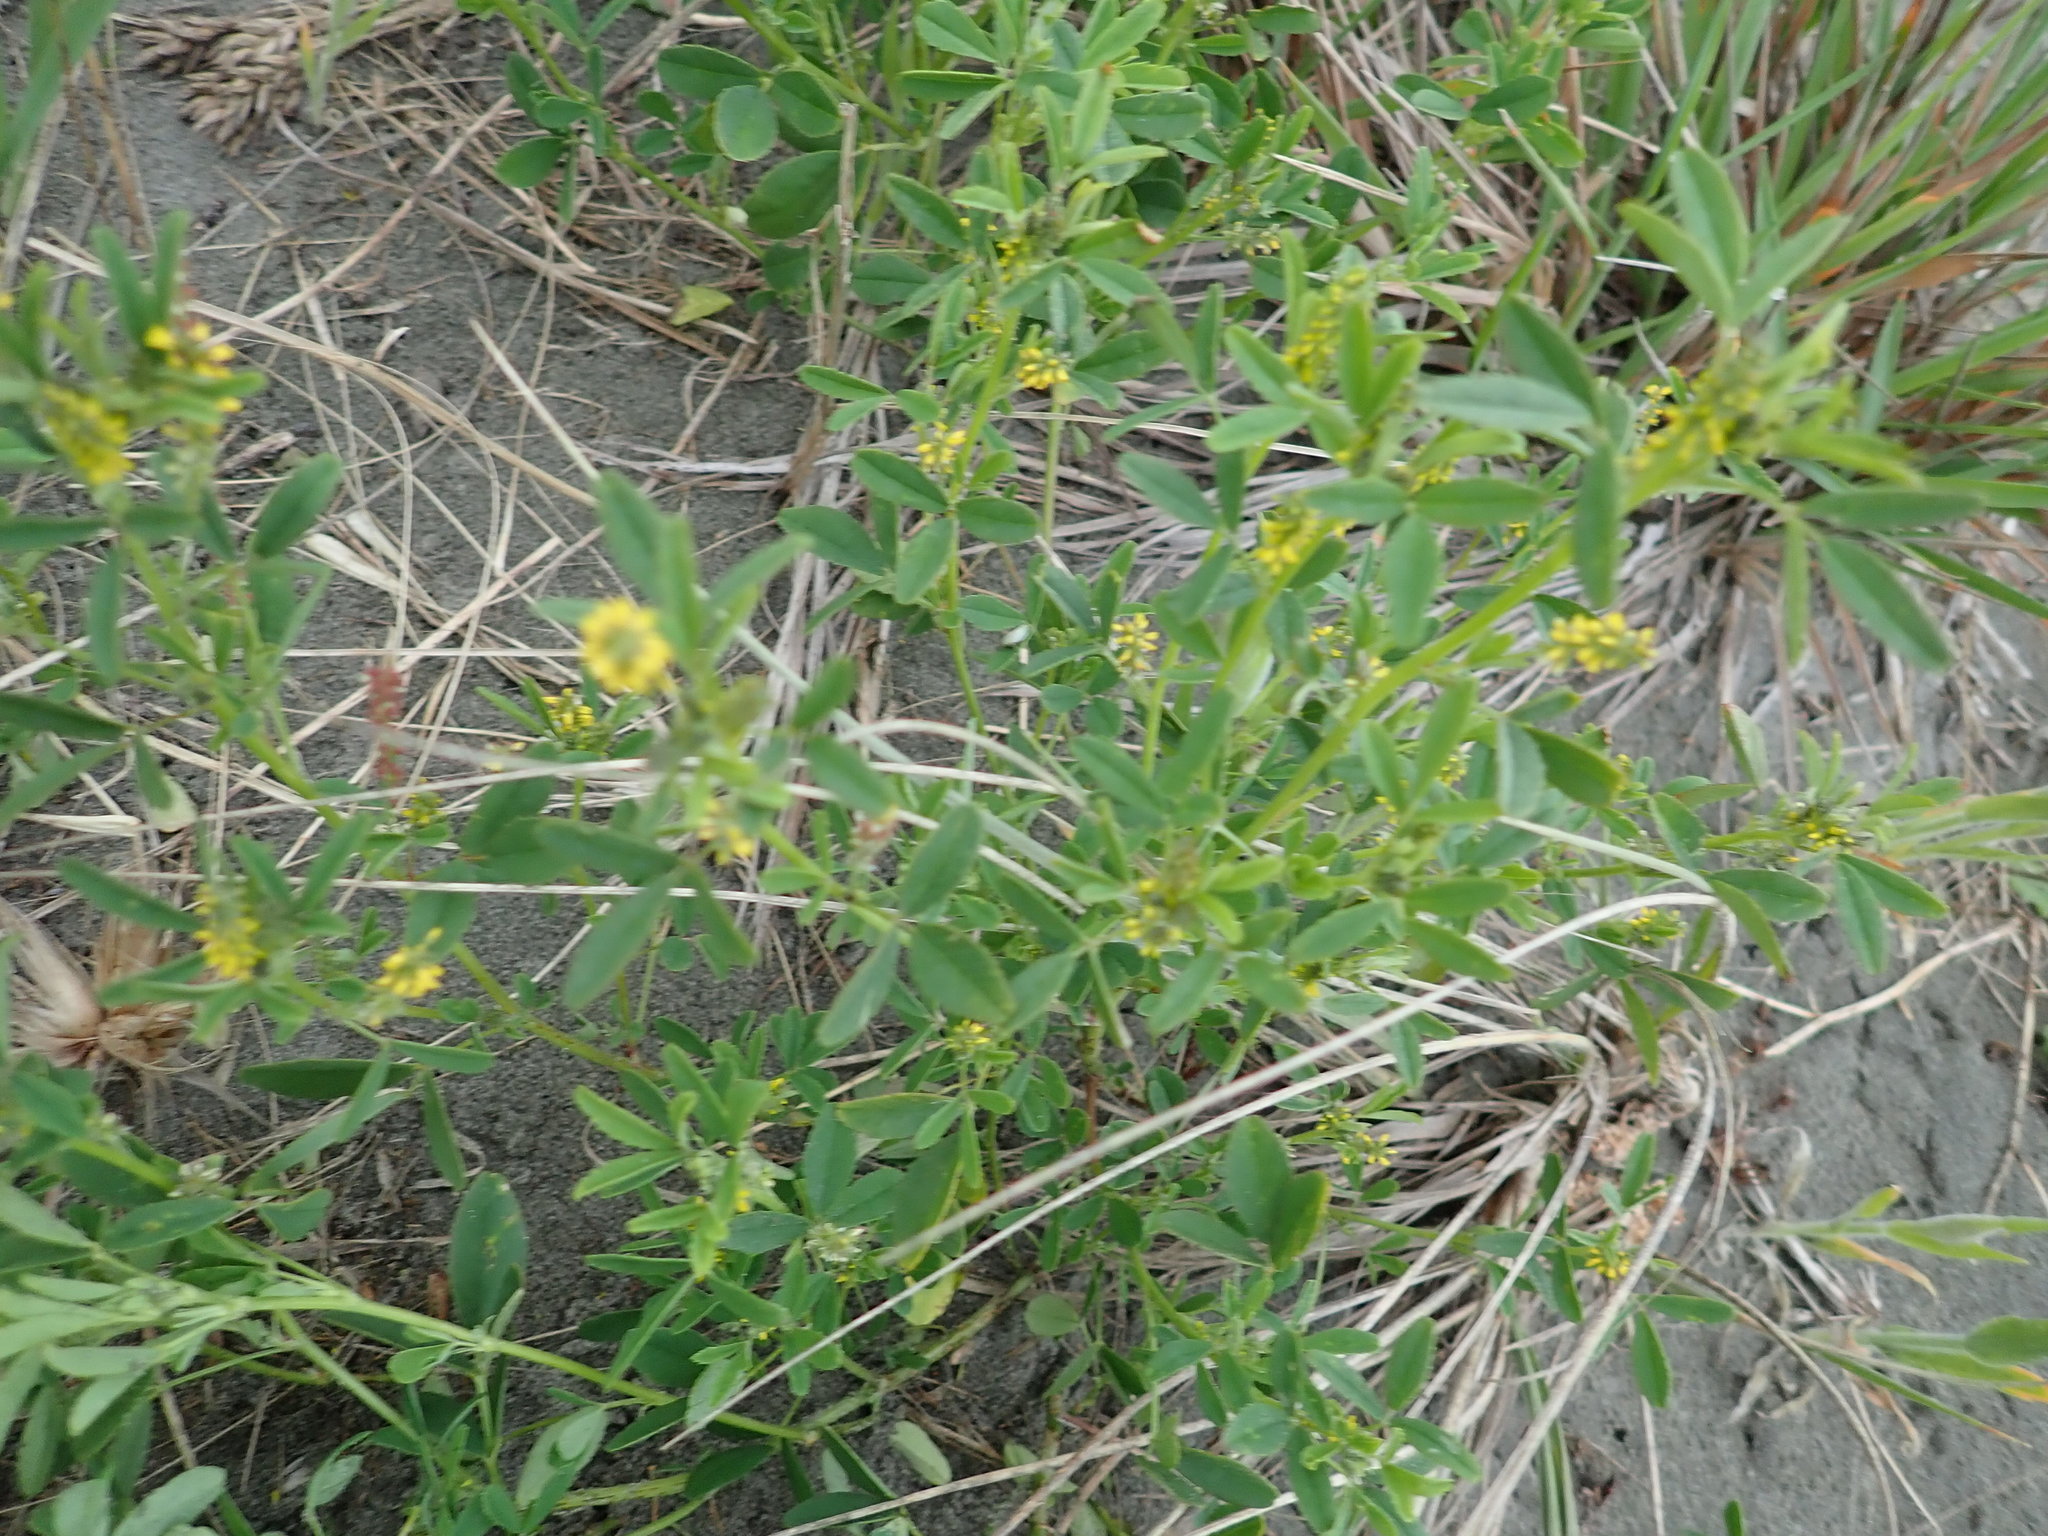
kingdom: Plantae
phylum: Tracheophyta
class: Magnoliopsida
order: Fabales
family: Fabaceae
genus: Melilotus
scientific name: Melilotus indicus
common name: Small melilot
